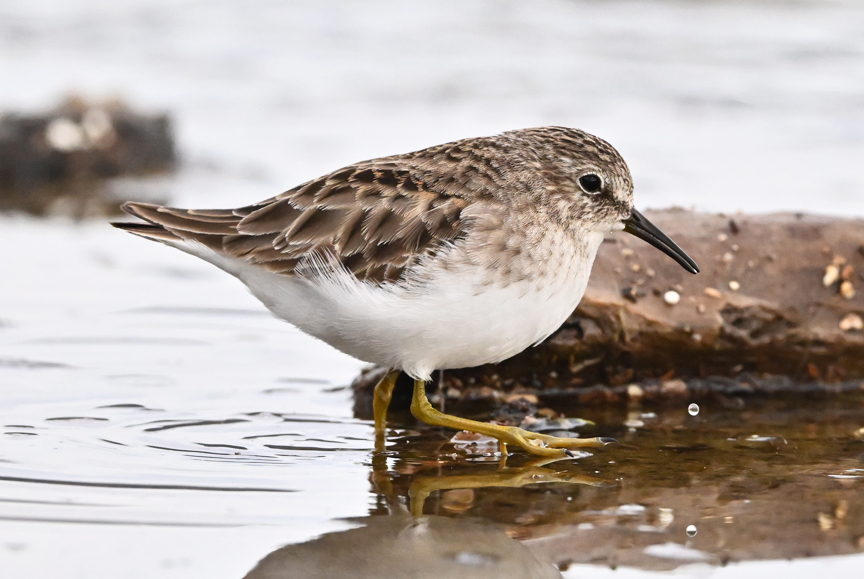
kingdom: Animalia
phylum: Chordata
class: Aves
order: Charadriiformes
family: Scolopacidae
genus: Calidris
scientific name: Calidris minutilla
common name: Least sandpiper
